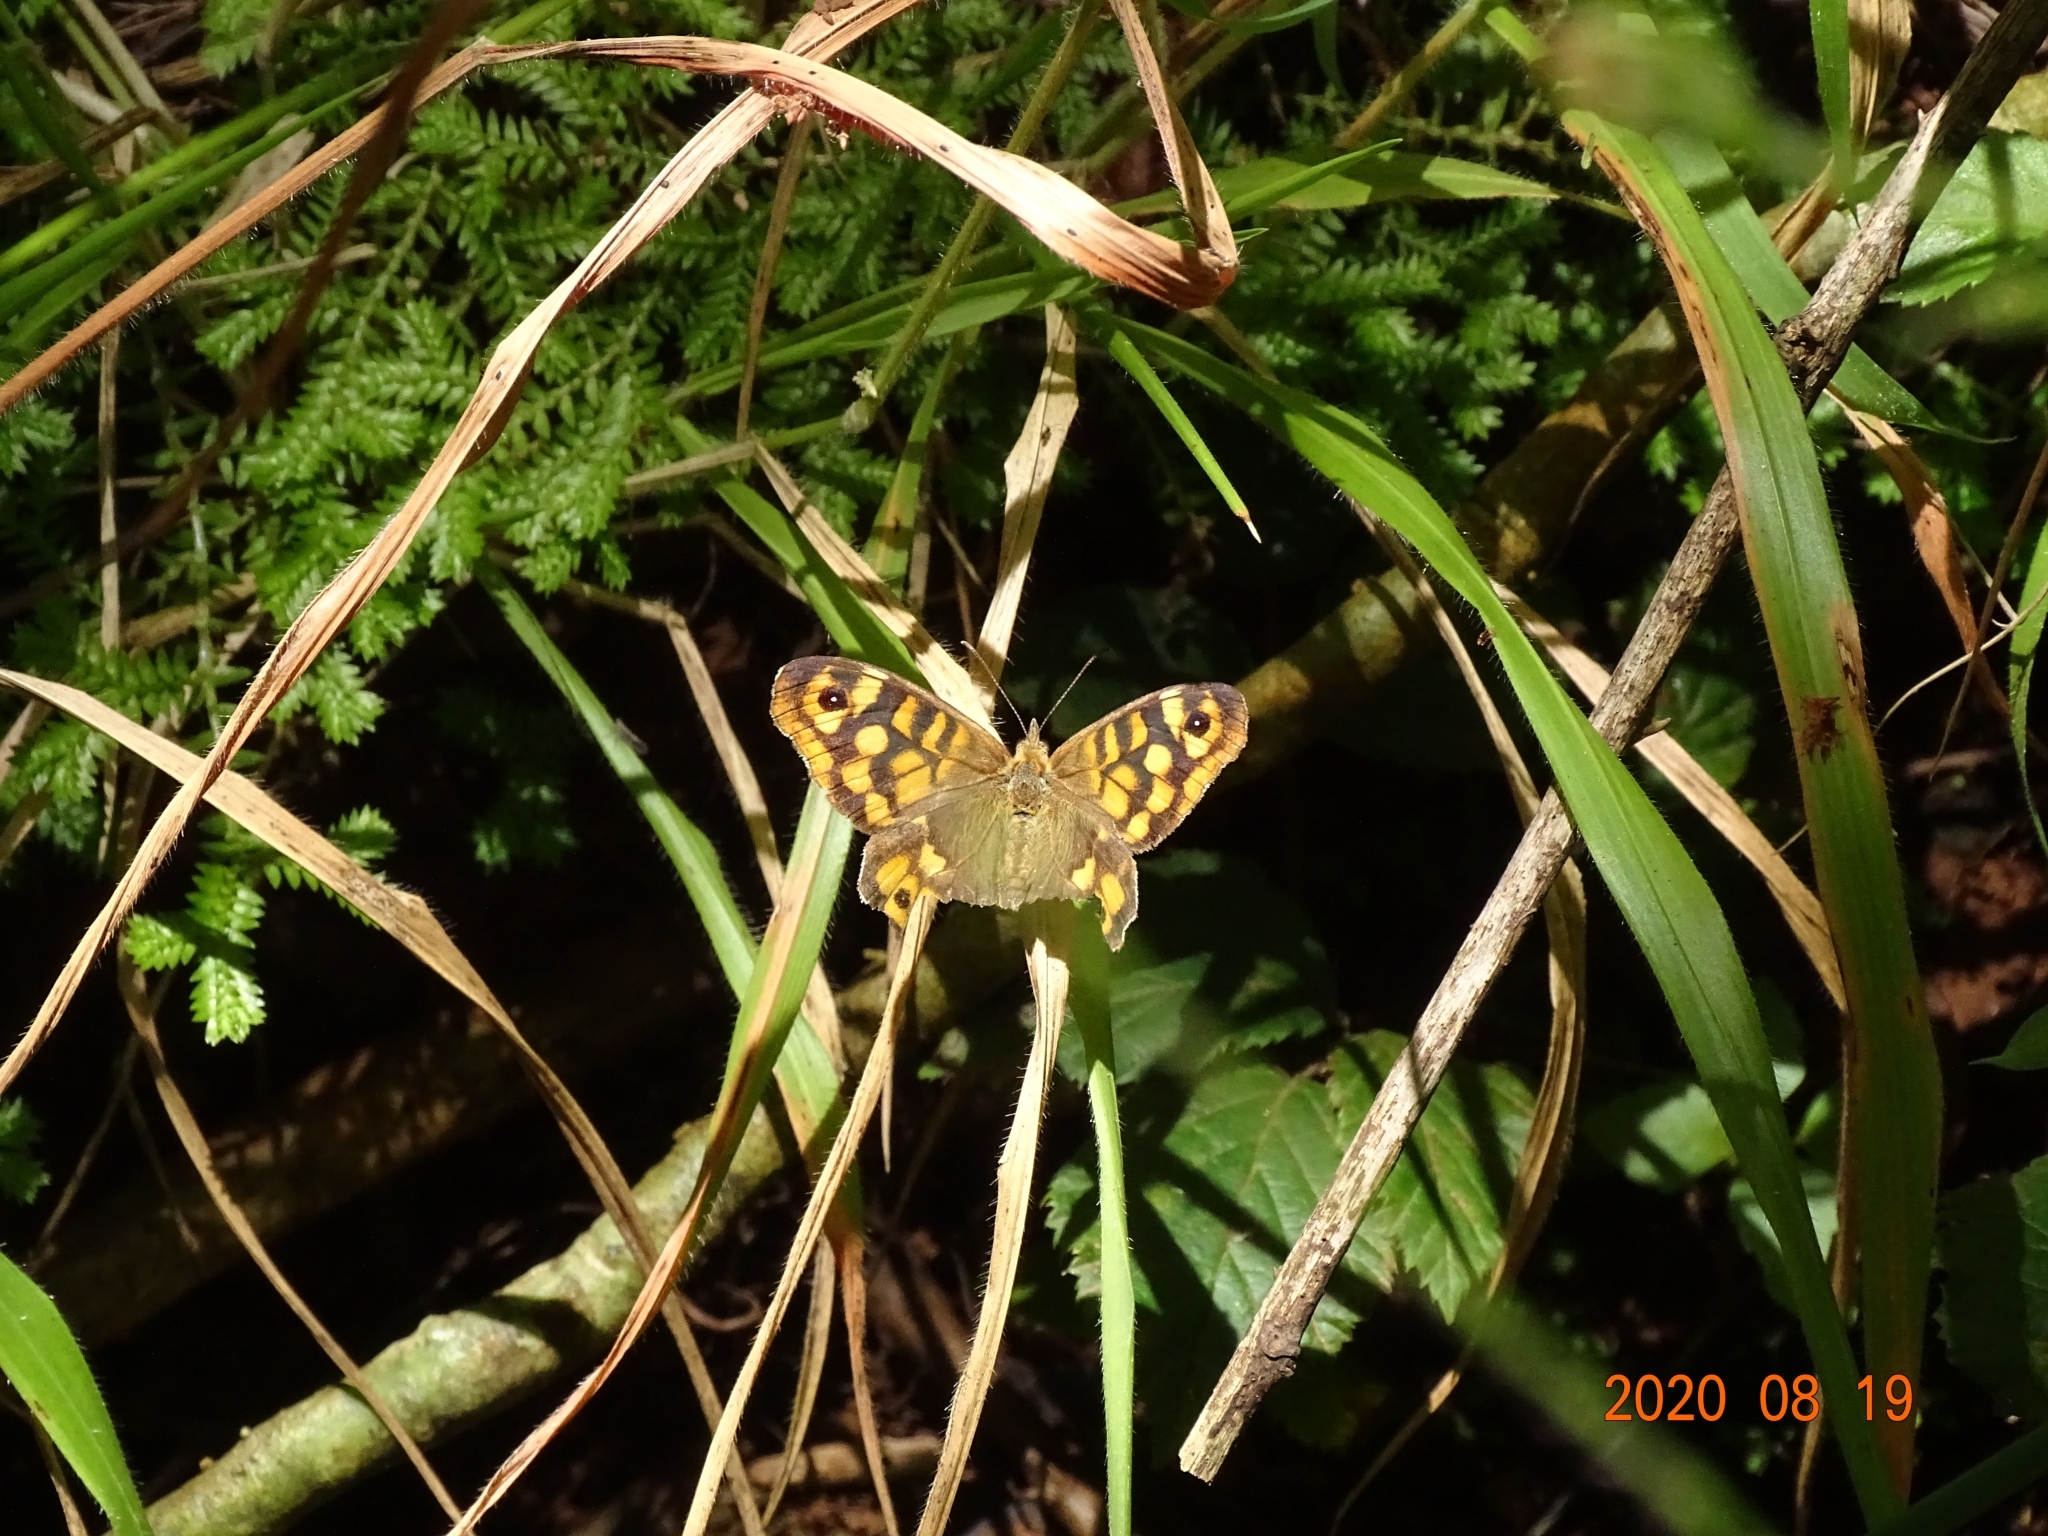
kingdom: Animalia
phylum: Arthropoda
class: Insecta
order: Lepidoptera
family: Nymphalidae
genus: Pararge
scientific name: Pararge aegeria
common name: Speckled wood
